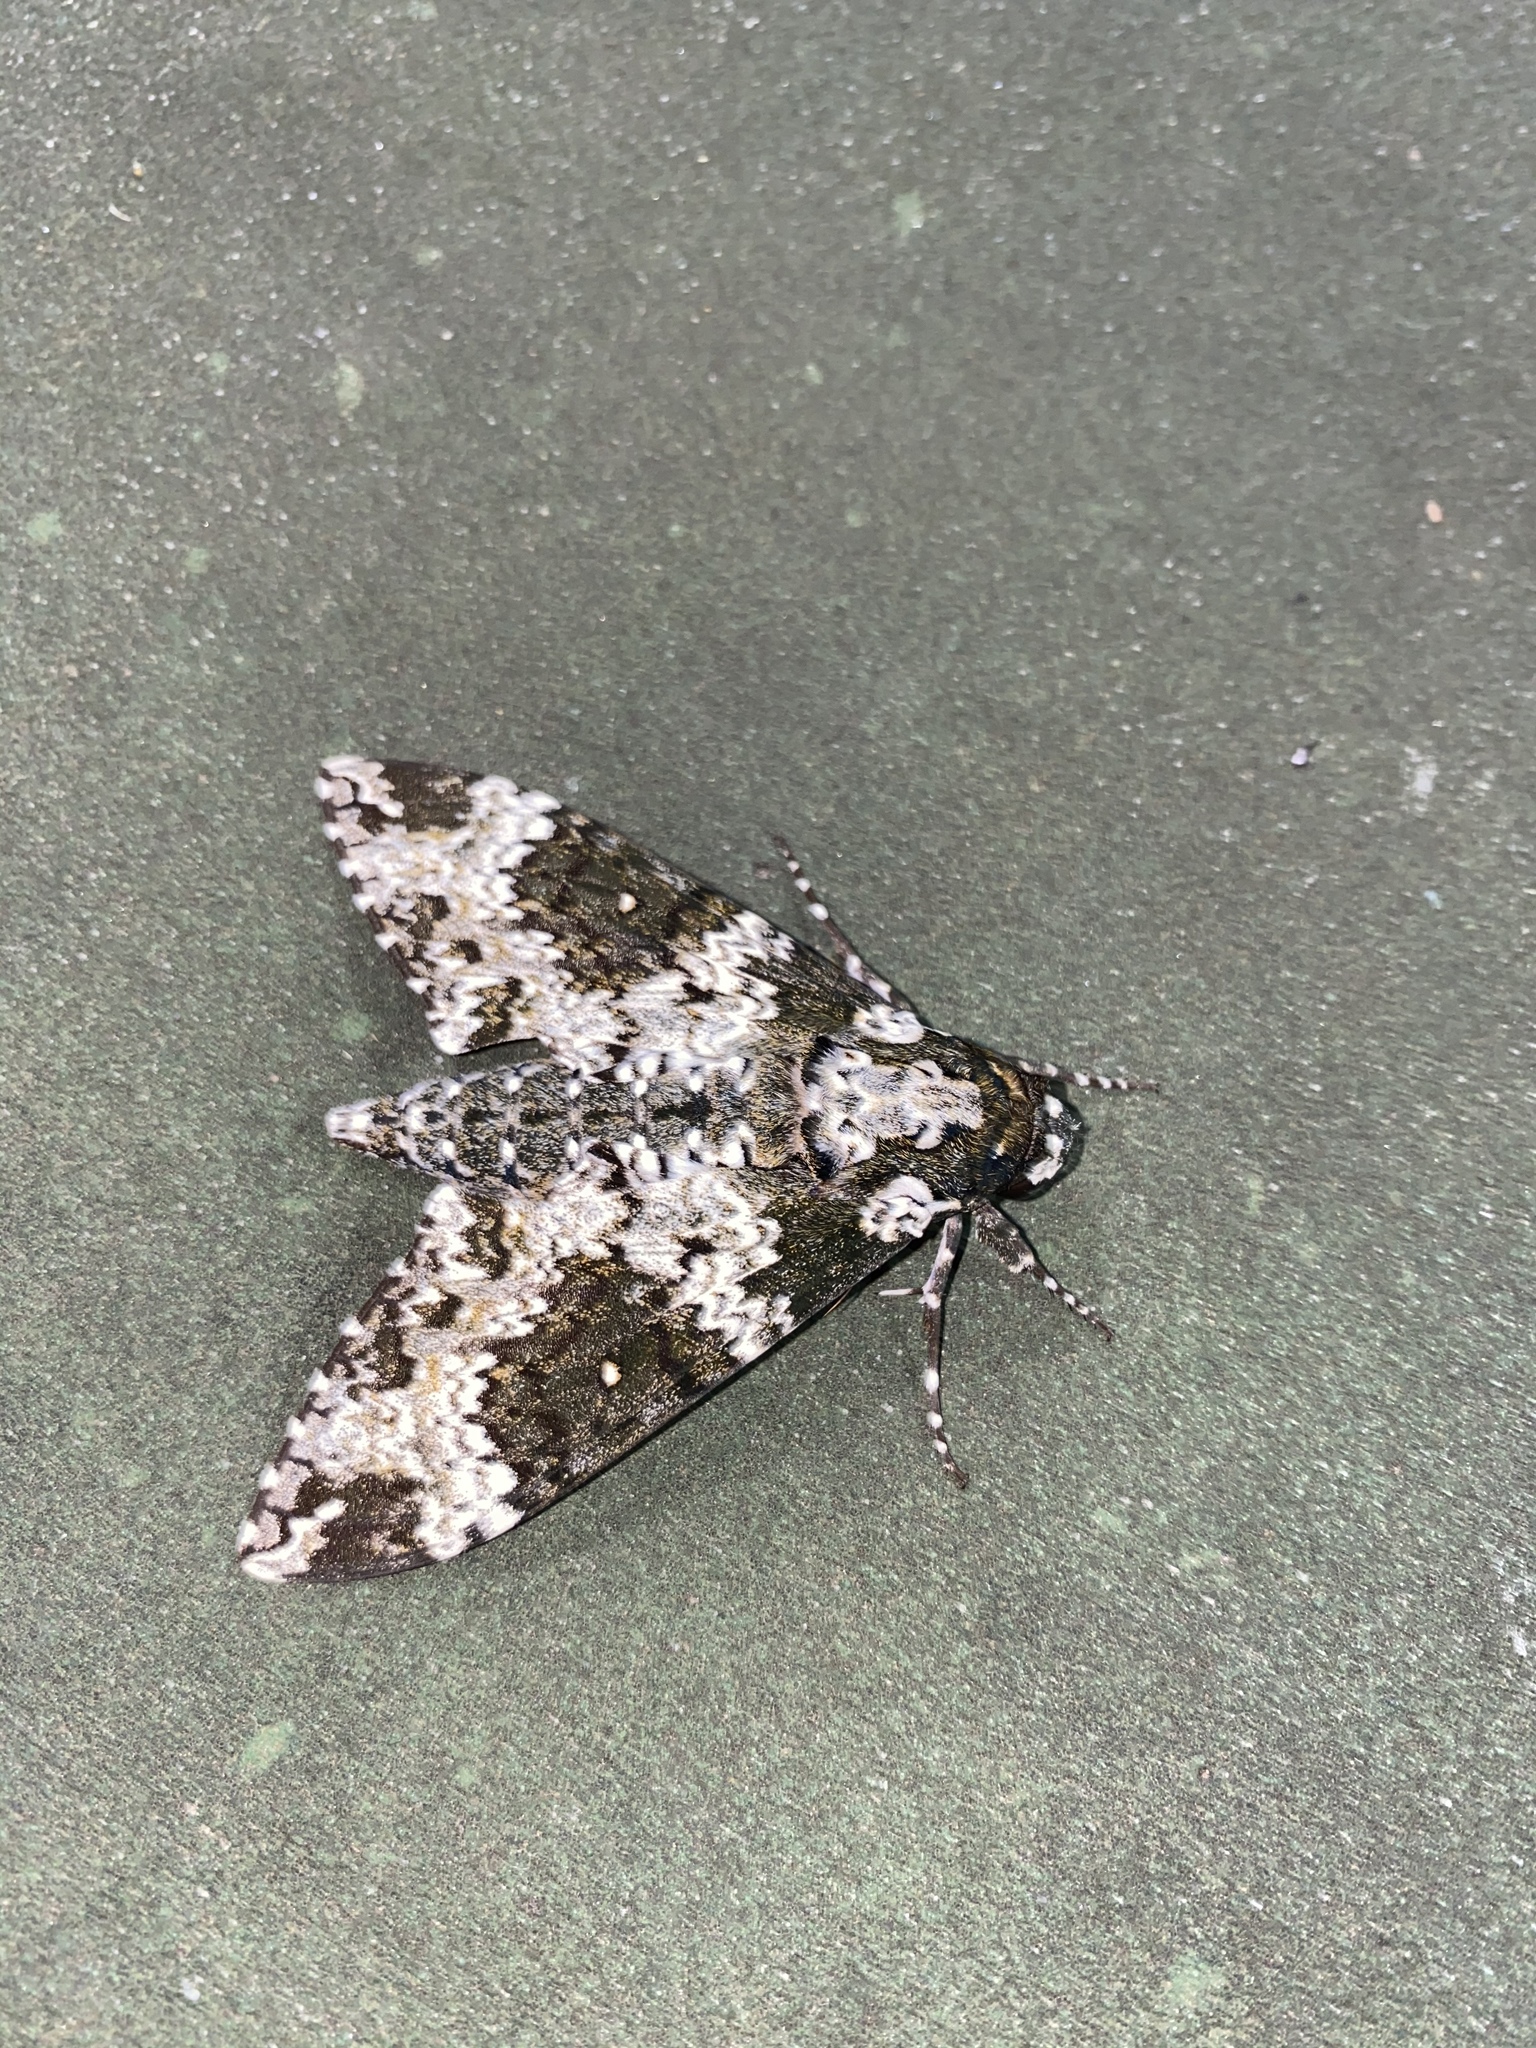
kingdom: Animalia
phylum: Arthropoda
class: Insecta
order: Lepidoptera
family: Sphingidae
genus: Manduca
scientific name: Manduca rustica
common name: Rustic sphinx
